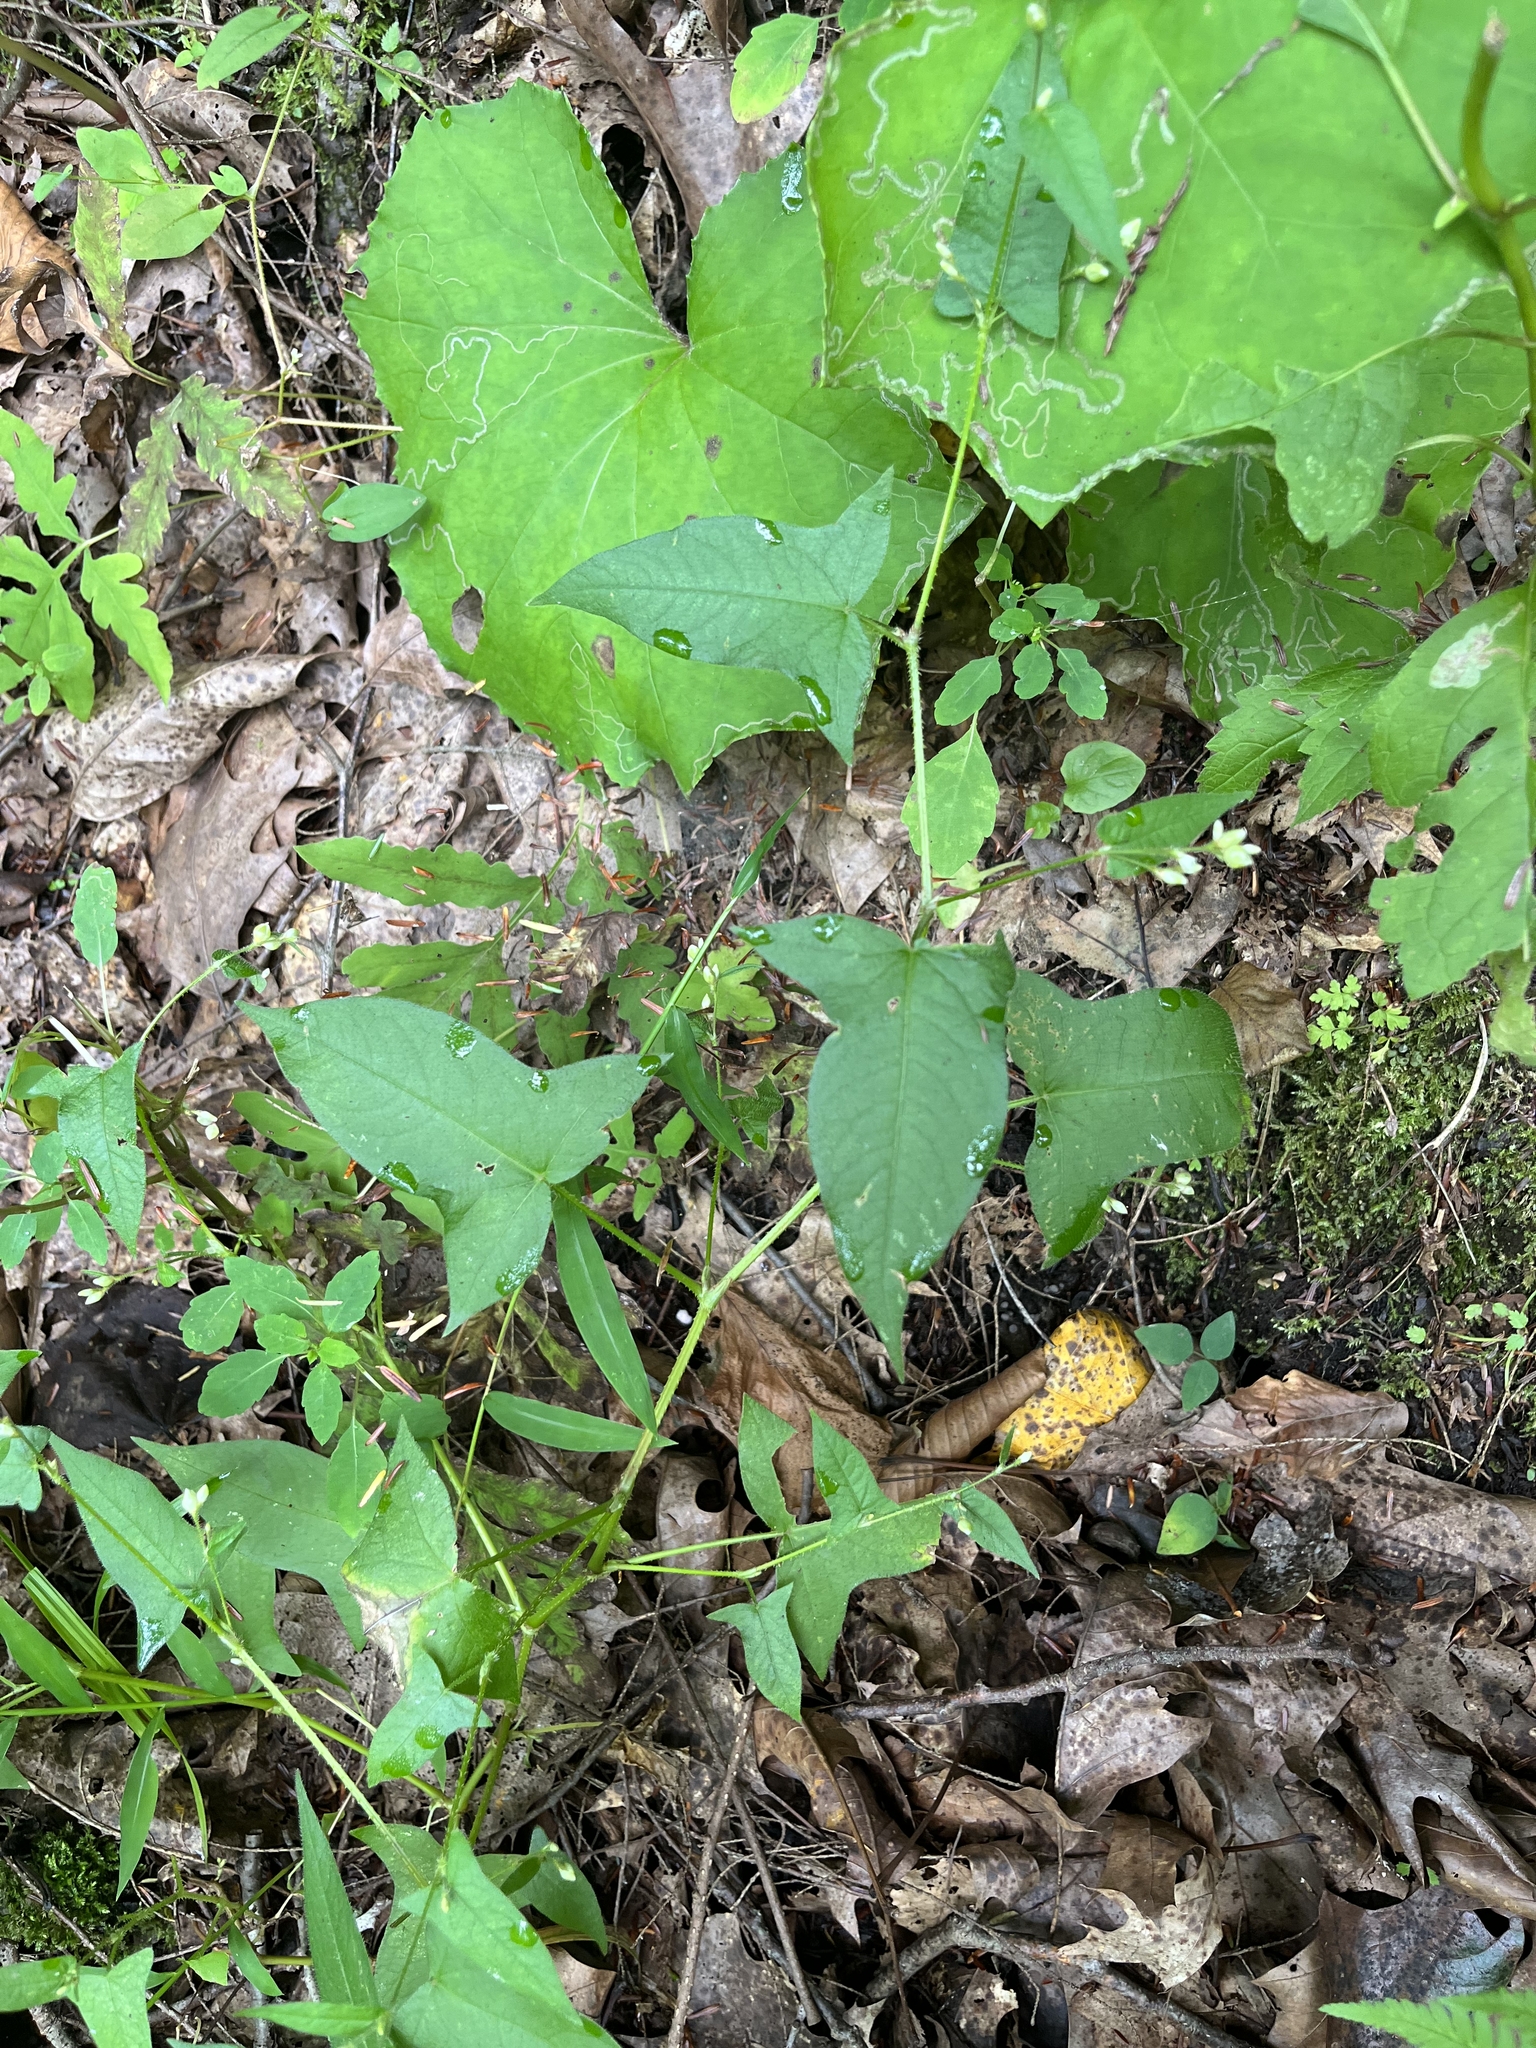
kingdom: Plantae
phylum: Tracheophyta
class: Magnoliopsida
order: Caryophyllales
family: Polygonaceae
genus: Persicaria
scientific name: Persicaria arifolia
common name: Halberd-leaved tear-thumb
